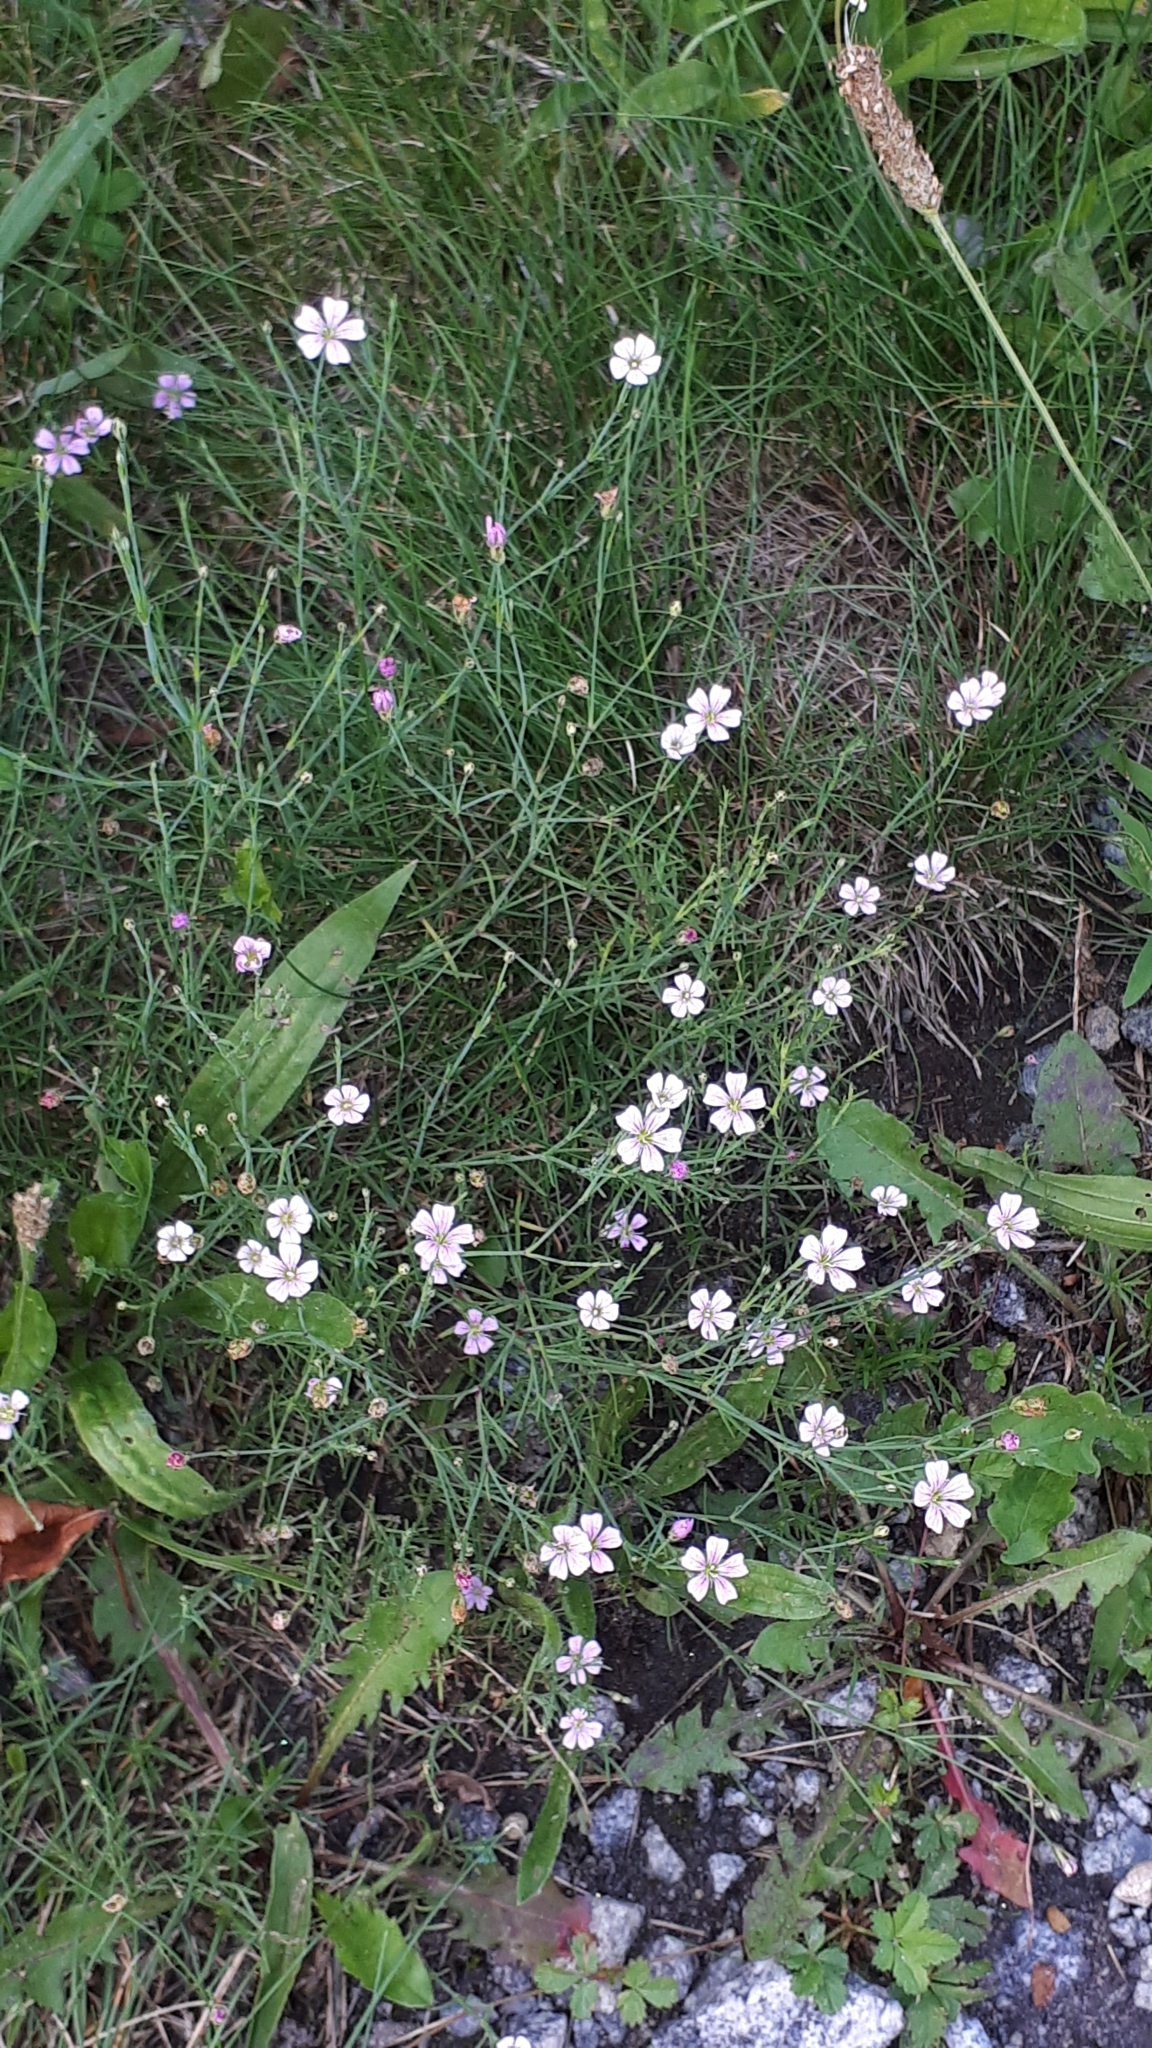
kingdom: Plantae
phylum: Tracheophyta
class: Magnoliopsida
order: Caryophyllales
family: Caryophyllaceae
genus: Petrorhagia
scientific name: Petrorhagia saxifraga
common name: Tunicflower
